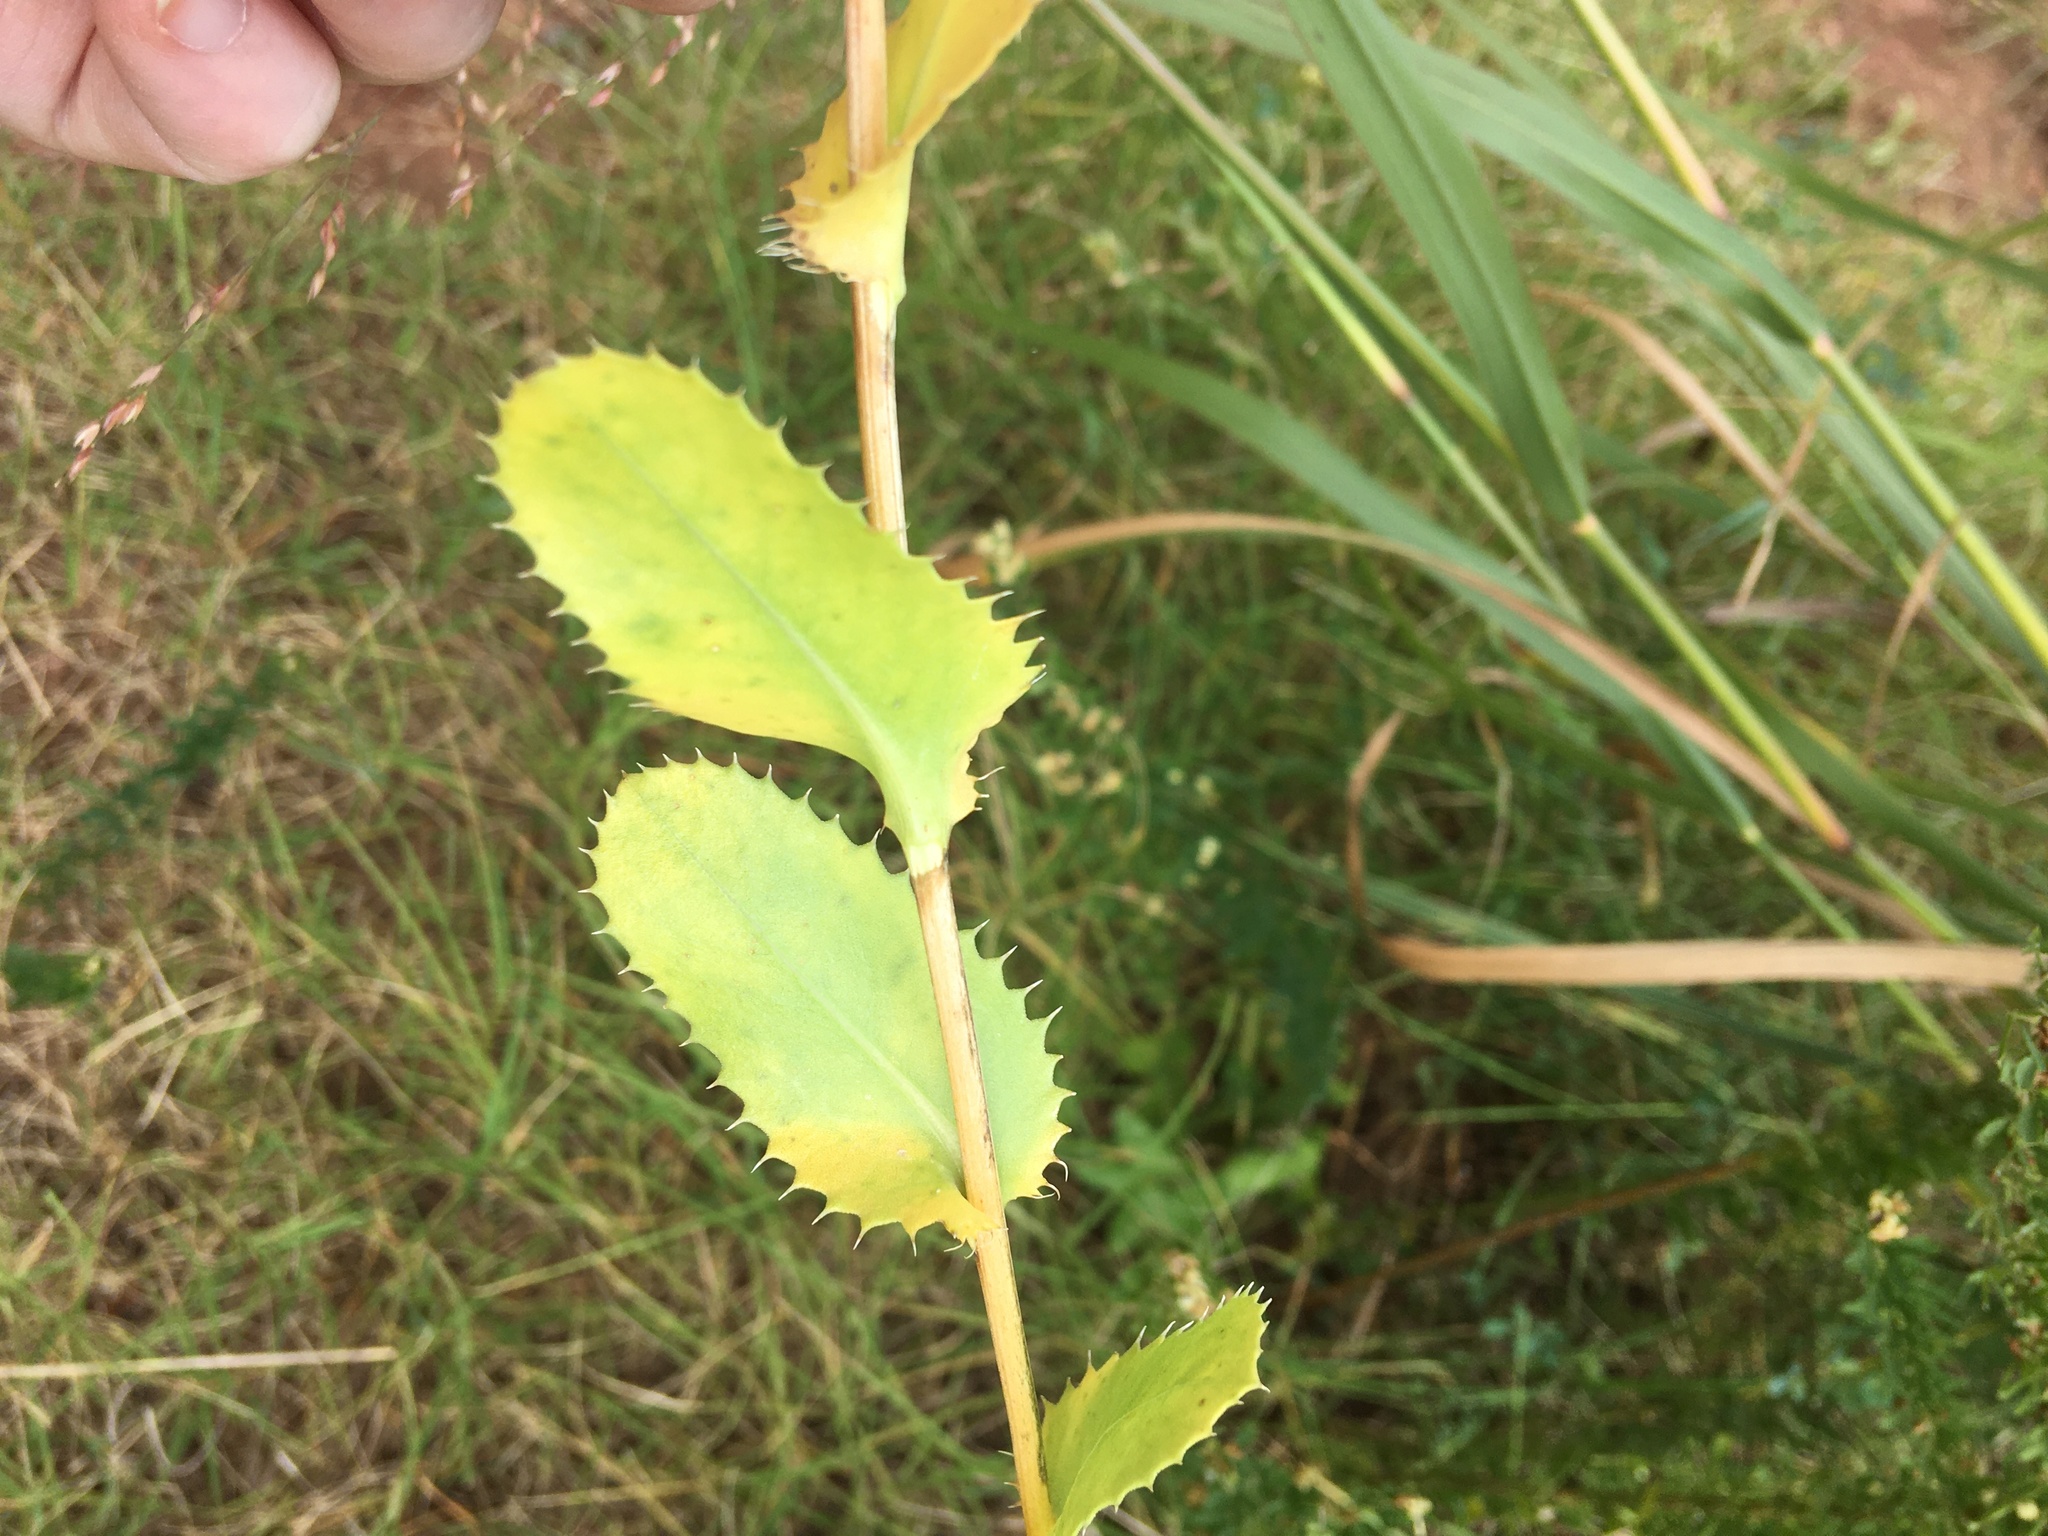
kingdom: Plantae
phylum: Tracheophyta
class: Magnoliopsida
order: Asterales
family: Asteraceae
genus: Grindelia
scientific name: Grindelia ciliata
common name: Goldenweed
